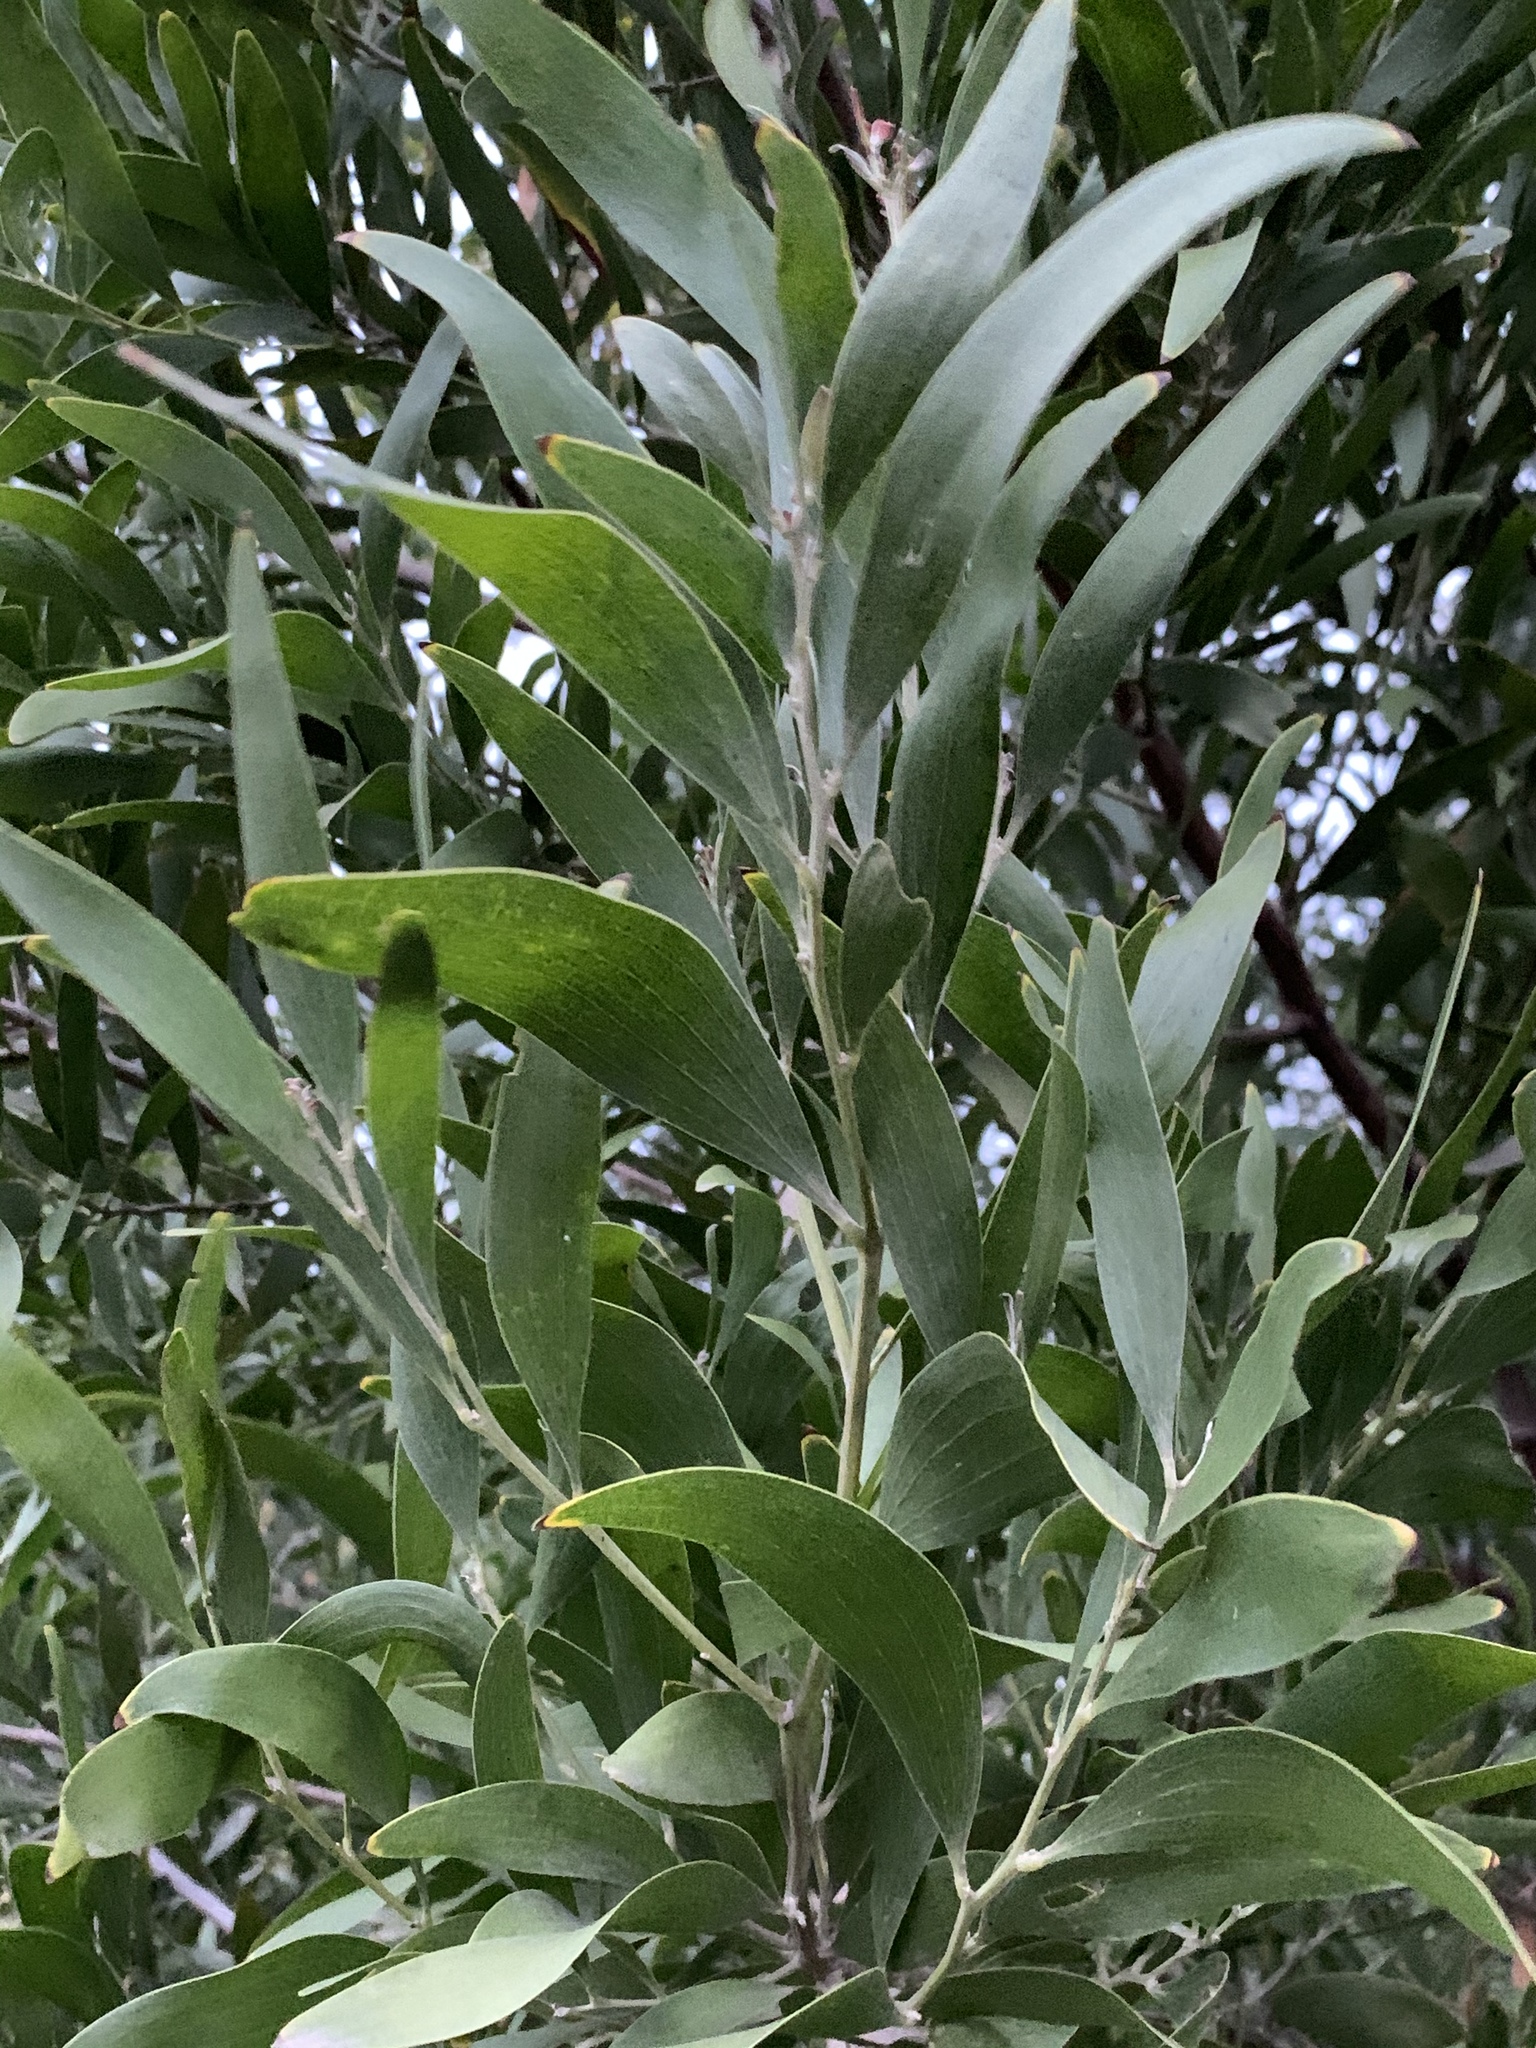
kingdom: Plantae
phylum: Tracheophyta
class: Magnoliopsida
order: Fabales
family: Fabaceae
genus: Acacia
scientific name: Acacia melanoxylon
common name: Blackwood
